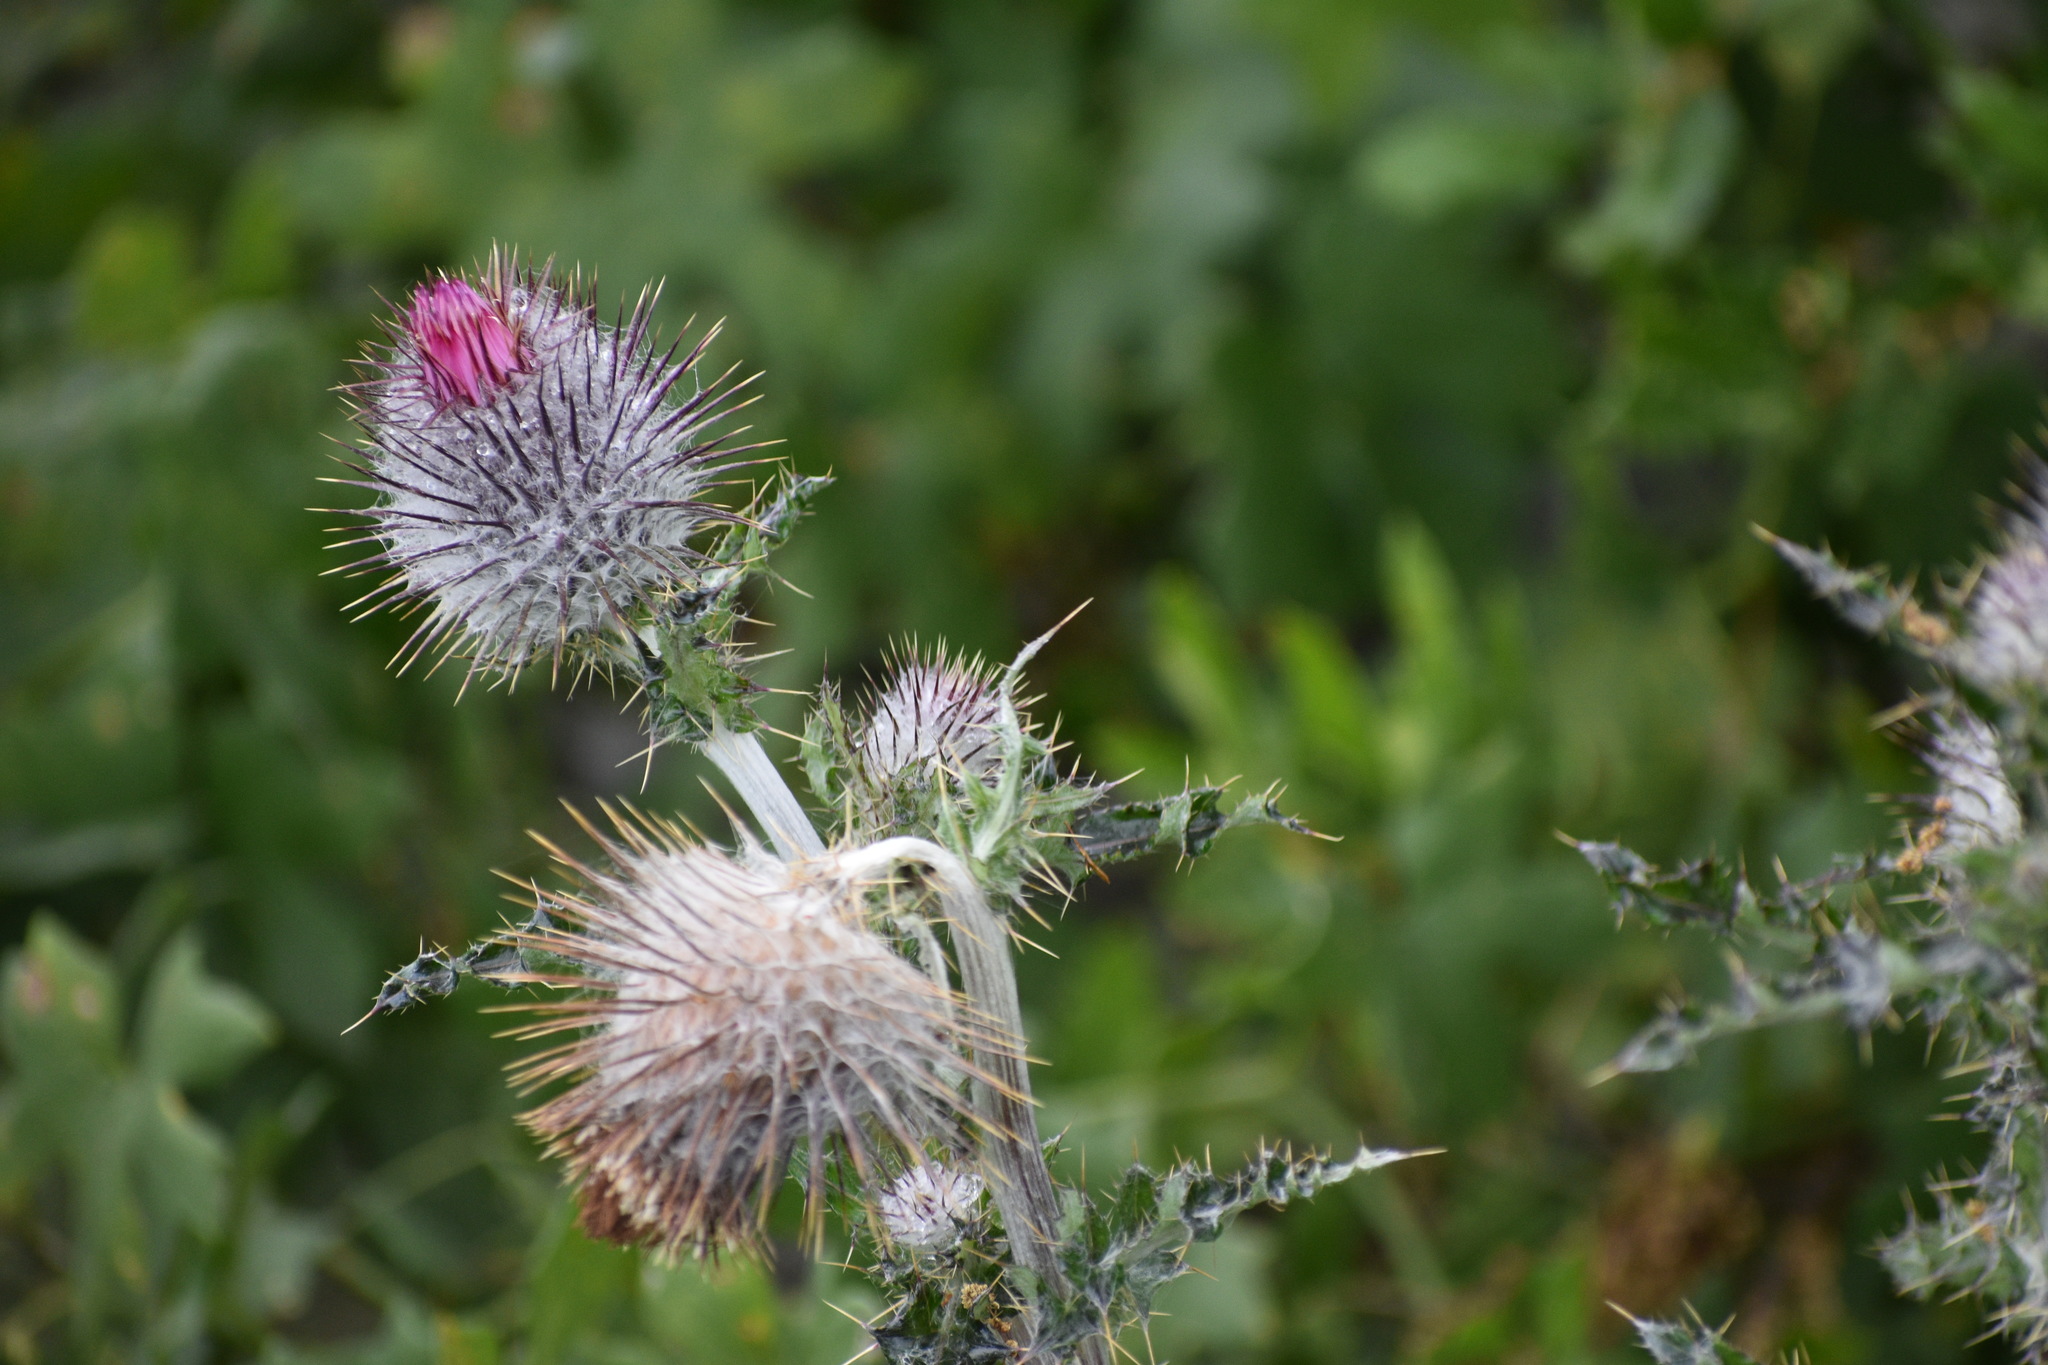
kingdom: Plantae
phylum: Tracheophyta
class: Magnoliopsida
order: Asterales
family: Asteraceae
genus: Cirsium
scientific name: Cirsium occidentale
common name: Western thistle
